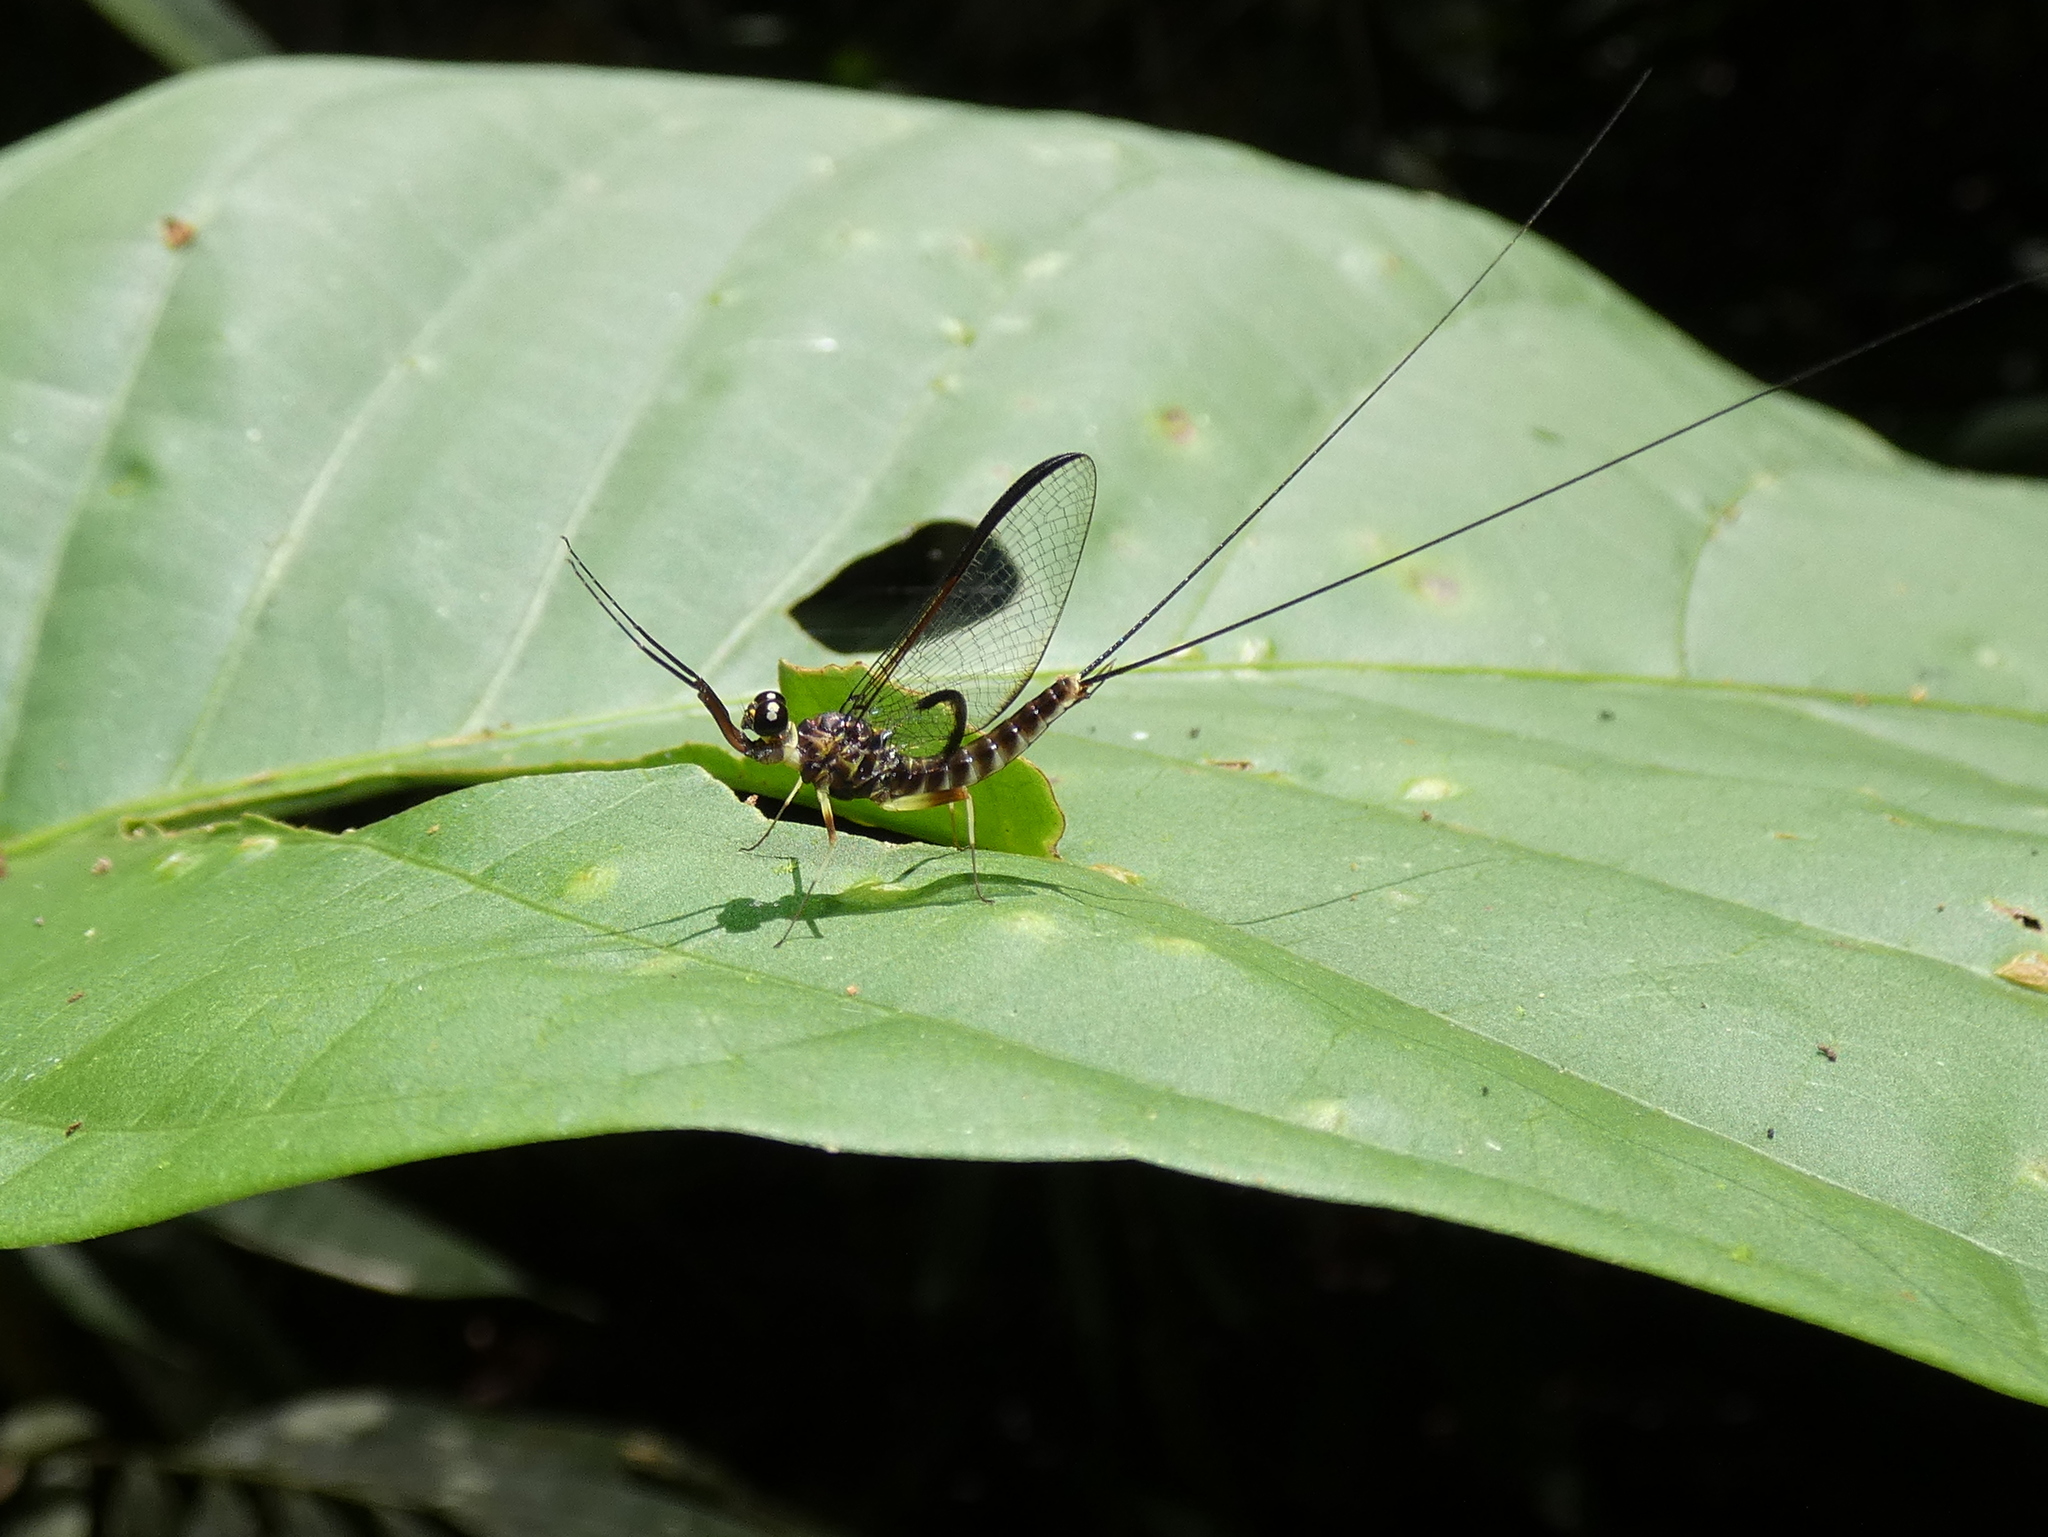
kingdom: Animalia
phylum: Arthropoda
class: Insecta
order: Ephemeroptera
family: Heptageniidae
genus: Atopopus
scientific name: Atopopus edmundsi
